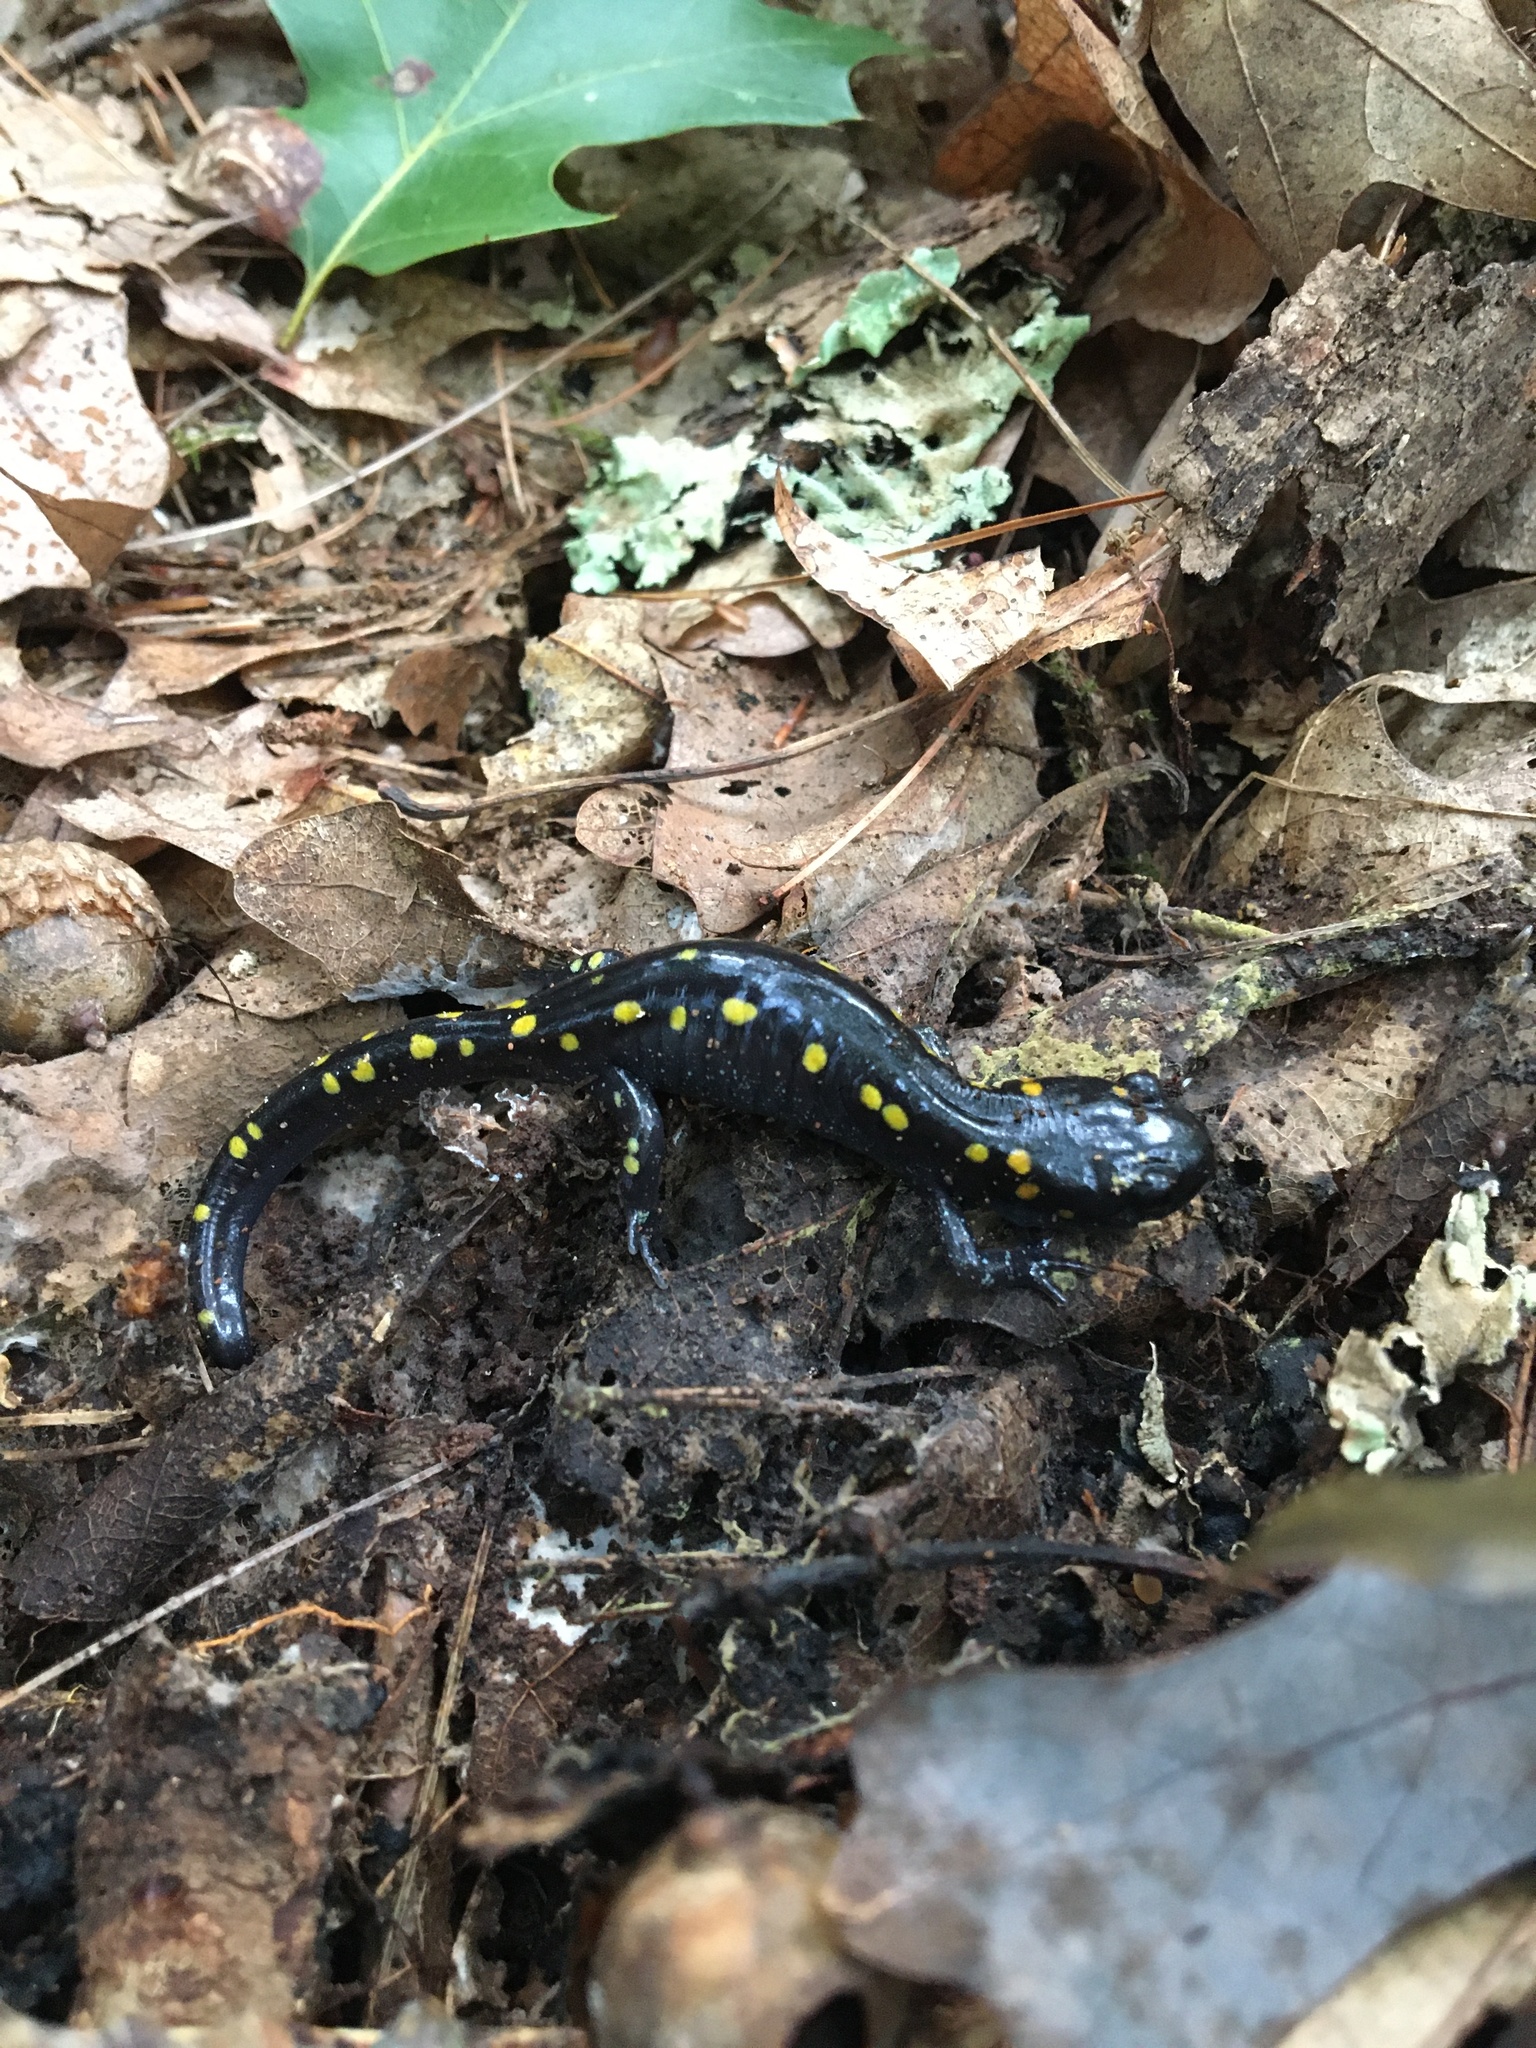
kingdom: Animalia
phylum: Chordata
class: Amphibia
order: Caudata
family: Ambystomatidae
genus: Ambystoma
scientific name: Ambystoma maculatum
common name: Spotted salamander
